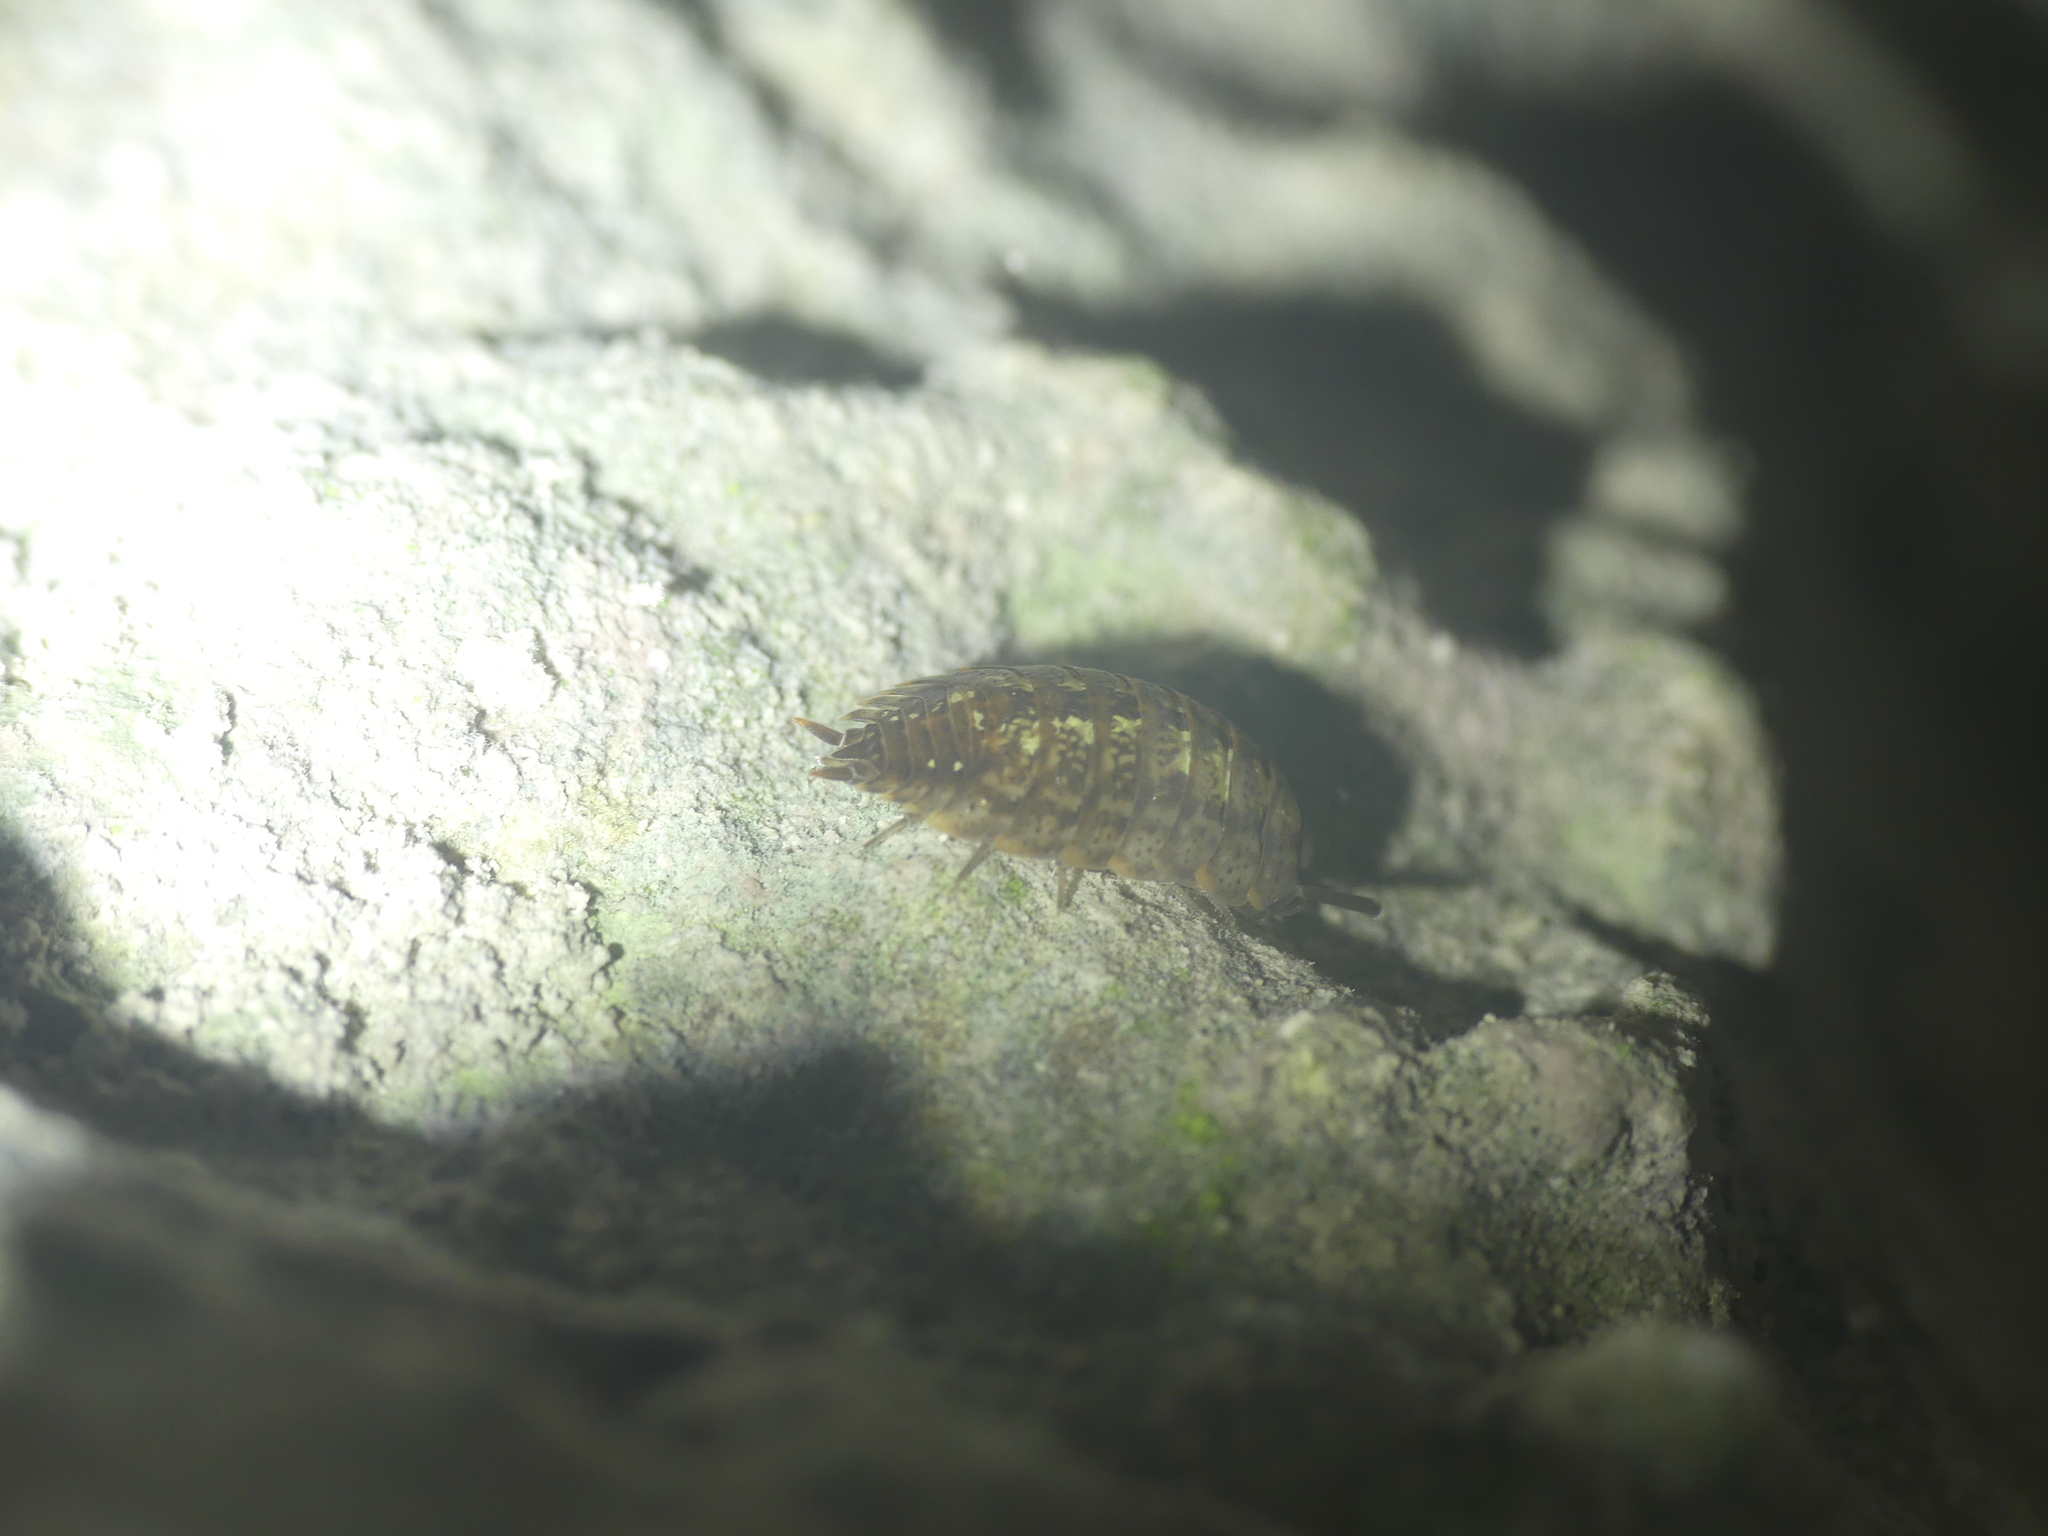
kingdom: Animalia
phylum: Arthropoda
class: Malacostraca
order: Isopoda
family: Porcellionidae
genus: Porcellio
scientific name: Porcellio monticola
